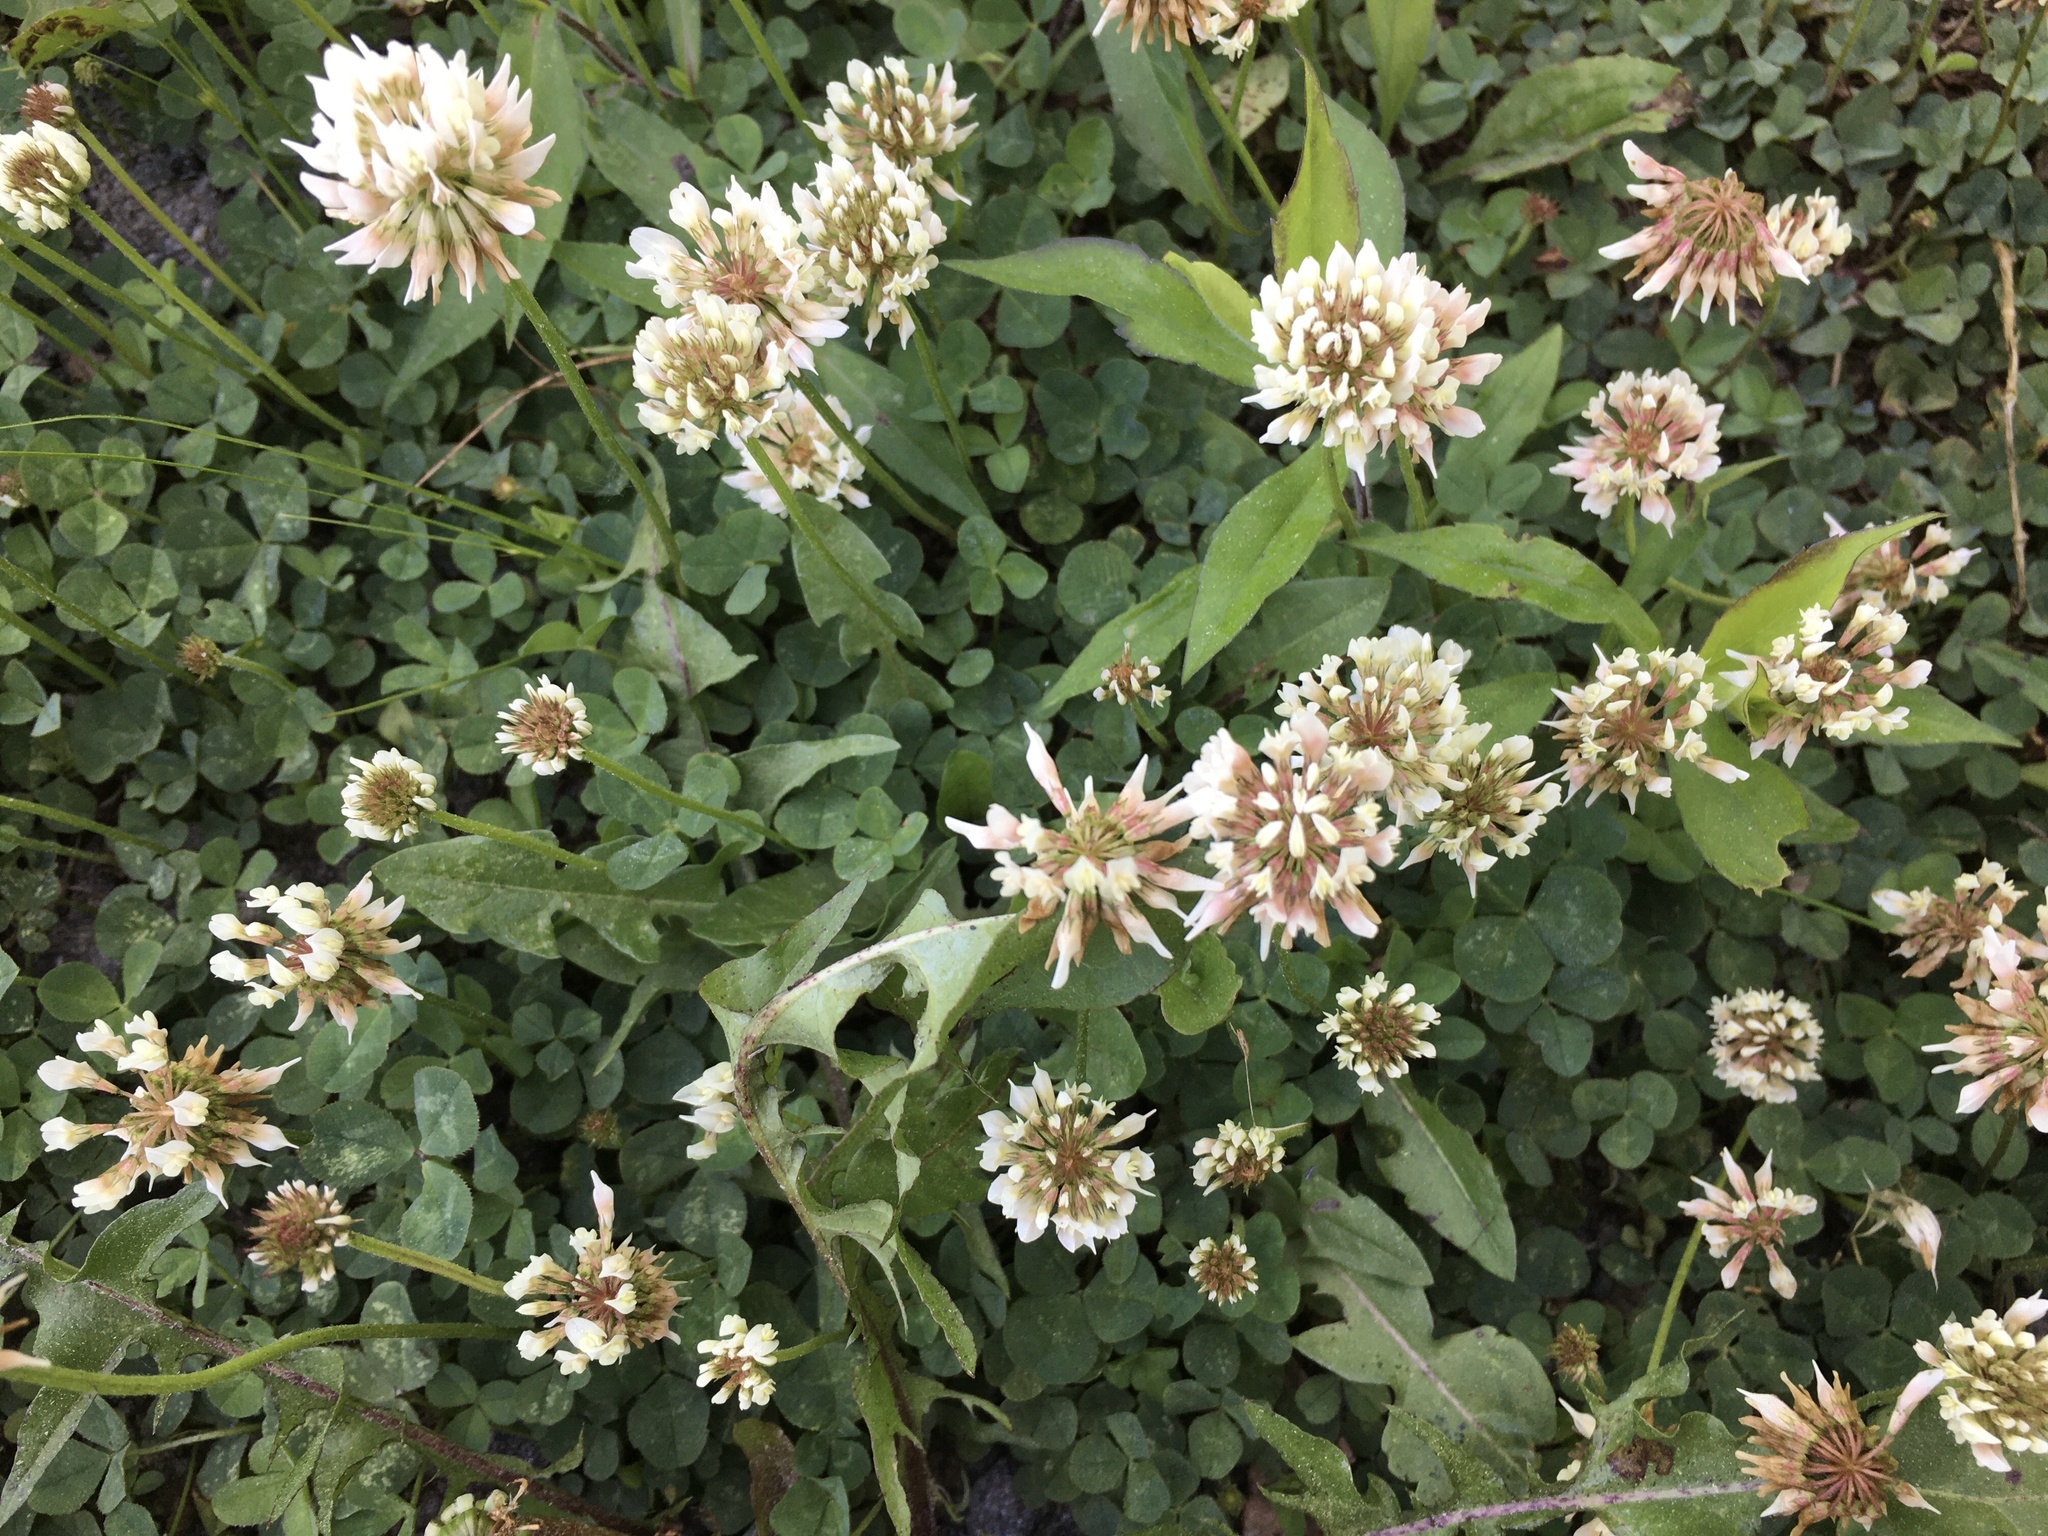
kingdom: Plantae
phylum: Tracheophyta
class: Magnoliopsida
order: Fabales
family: Fabaceae
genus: Trifolium
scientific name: Trifolium repens
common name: White clover
